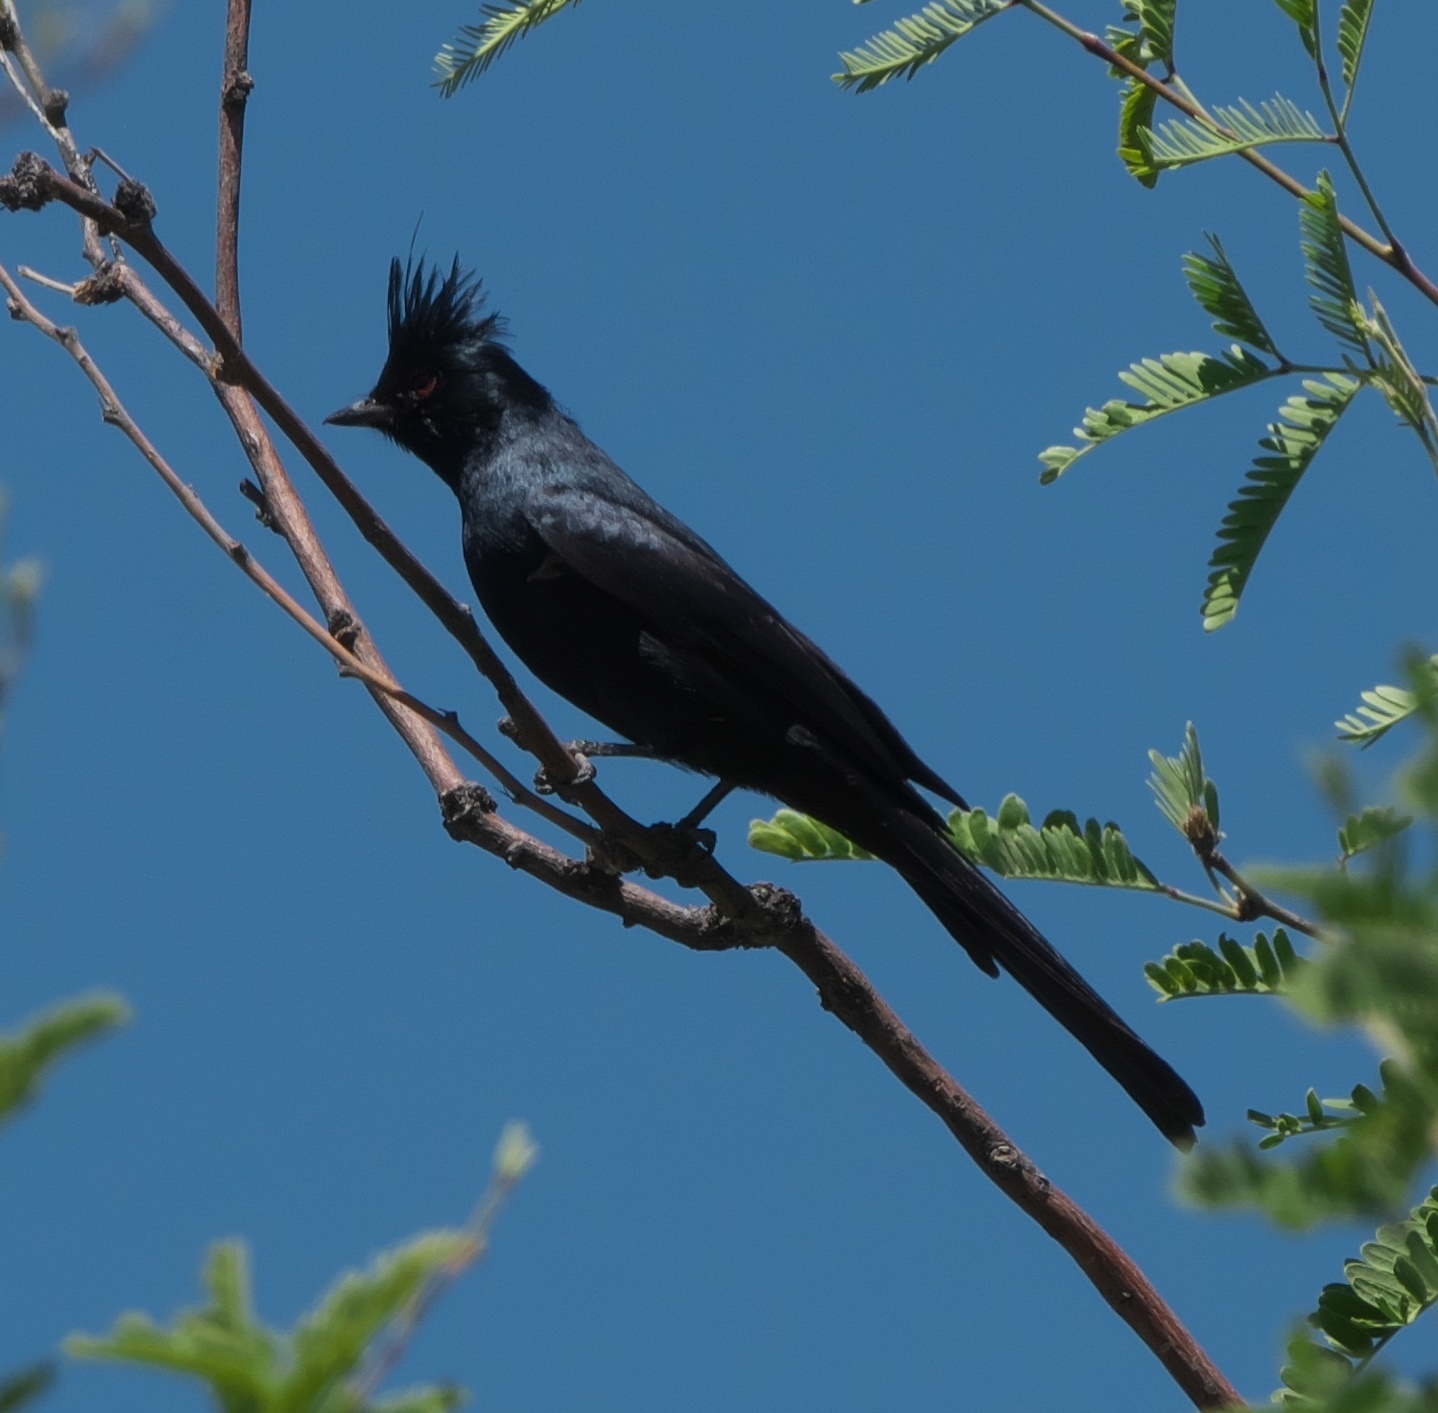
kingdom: Animalia
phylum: Chordata
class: Aves
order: Passeriformes
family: Ptilogonatidae
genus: Phainopepla
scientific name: Phainopepla nitens
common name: Phainopepla
